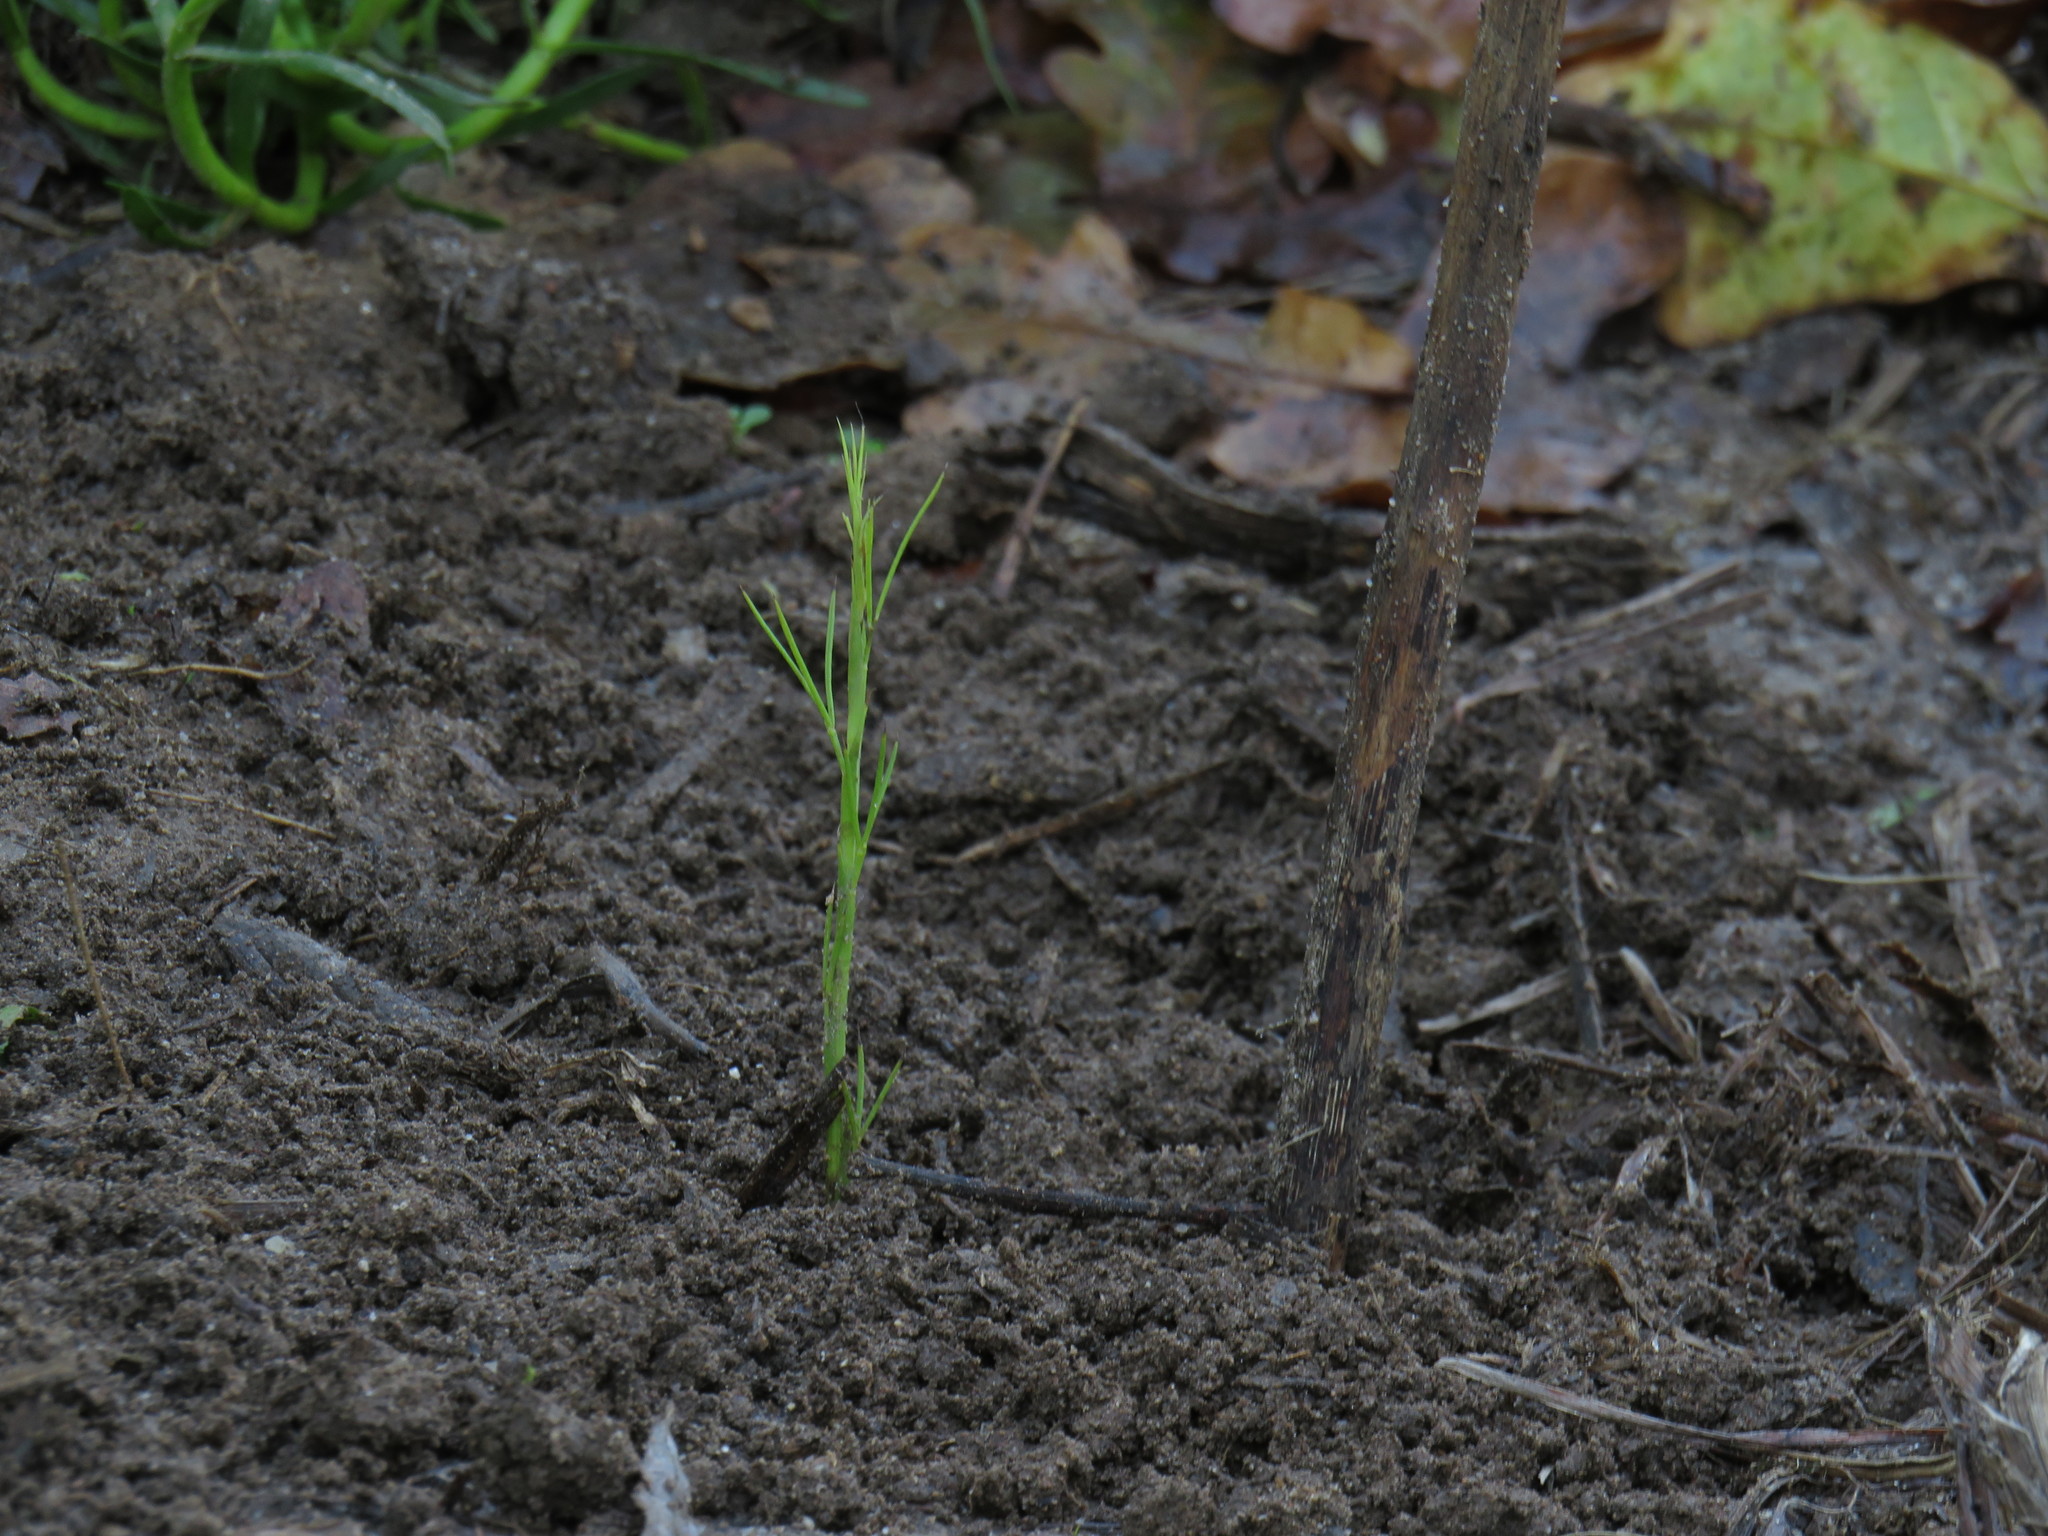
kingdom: Plantae
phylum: Tracheophyta
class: Magnoliopsida
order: Fabales
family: Fabaceae
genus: Psoralea
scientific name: Psoralea fascicularis
